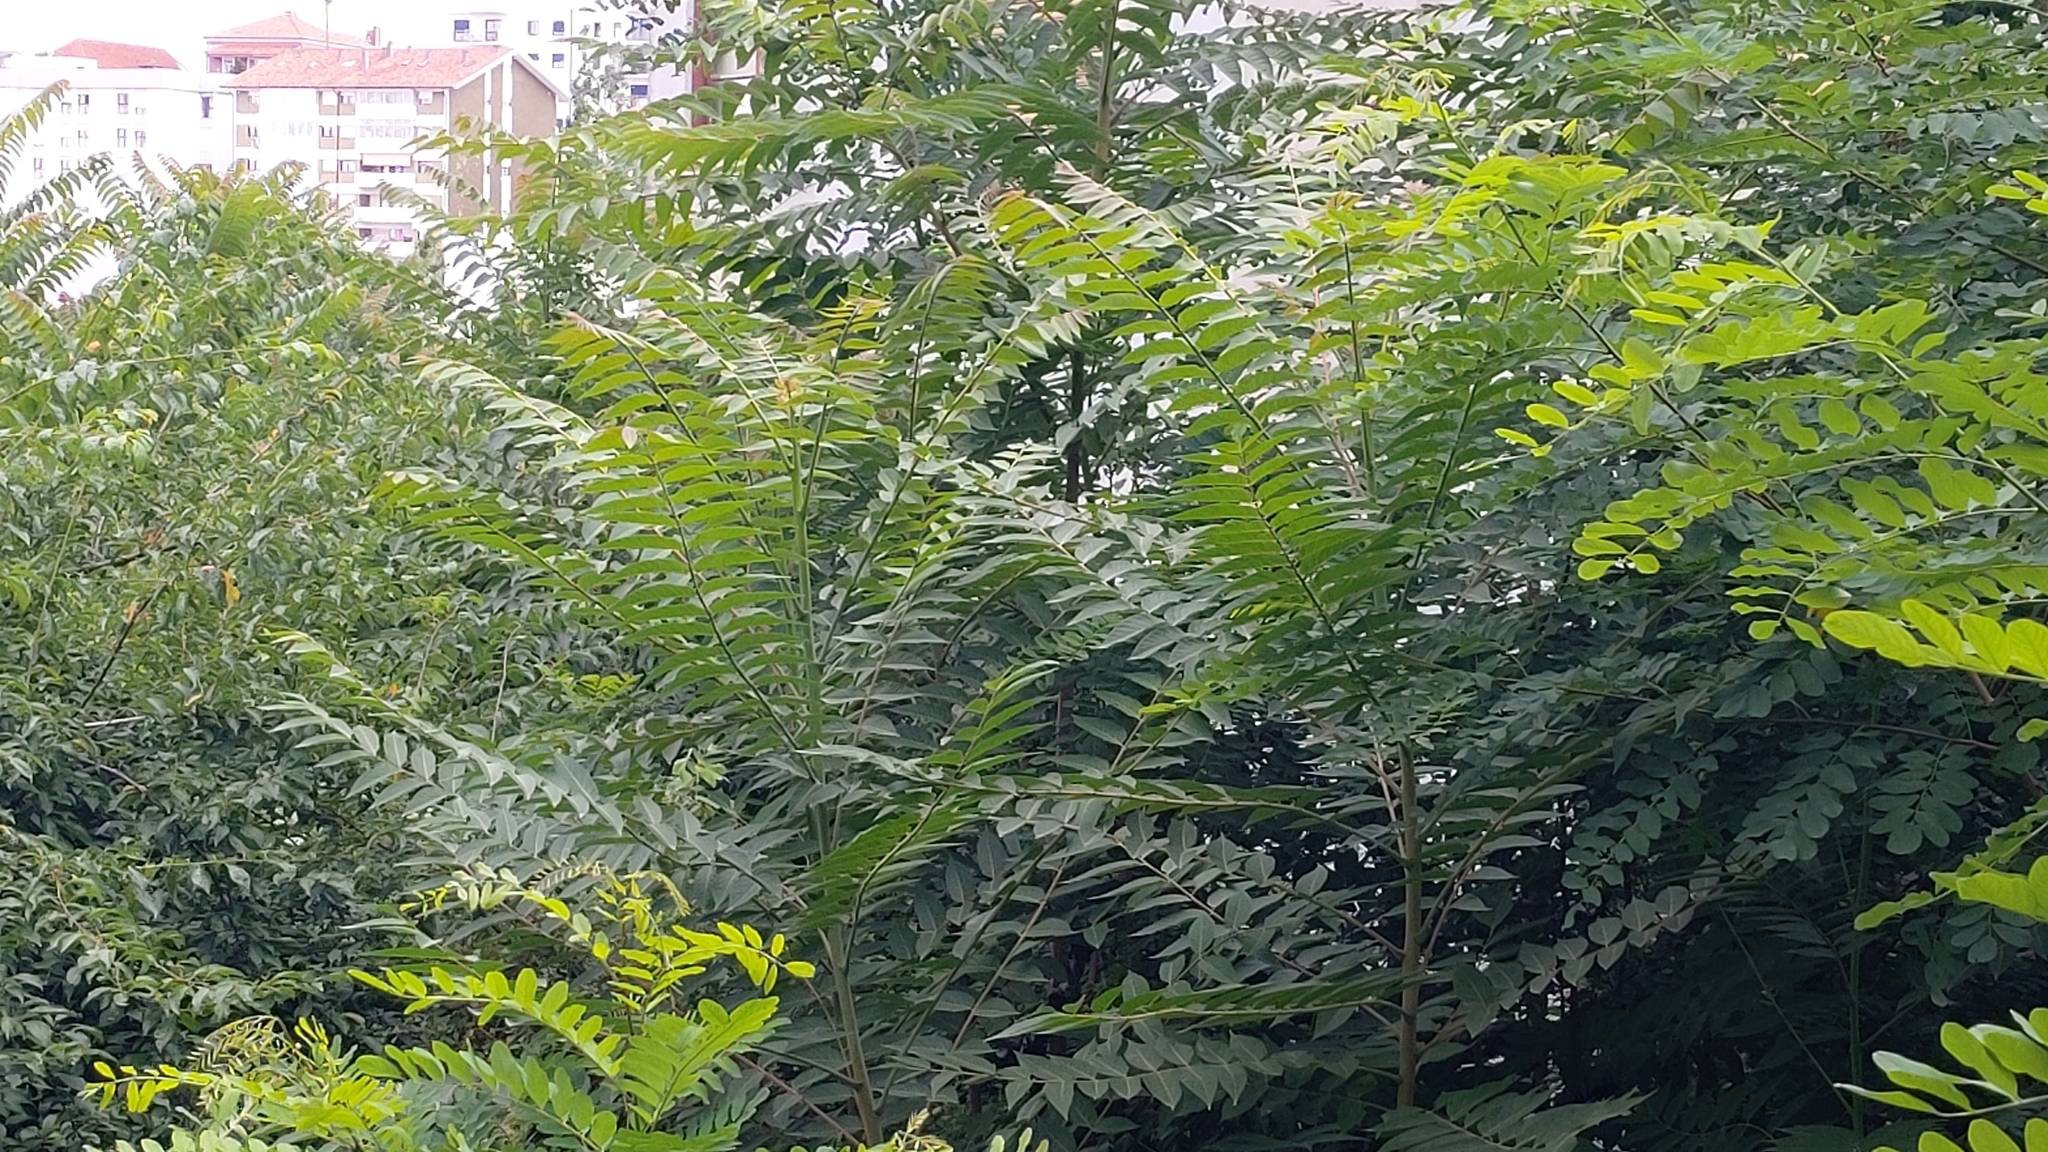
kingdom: Plantae
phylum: Tracheophyta
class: Magnoliopsida
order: Sapindales
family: Simaroubaceae
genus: Ailanthus
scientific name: Ailanthus altissima
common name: Tree-of-heaven
